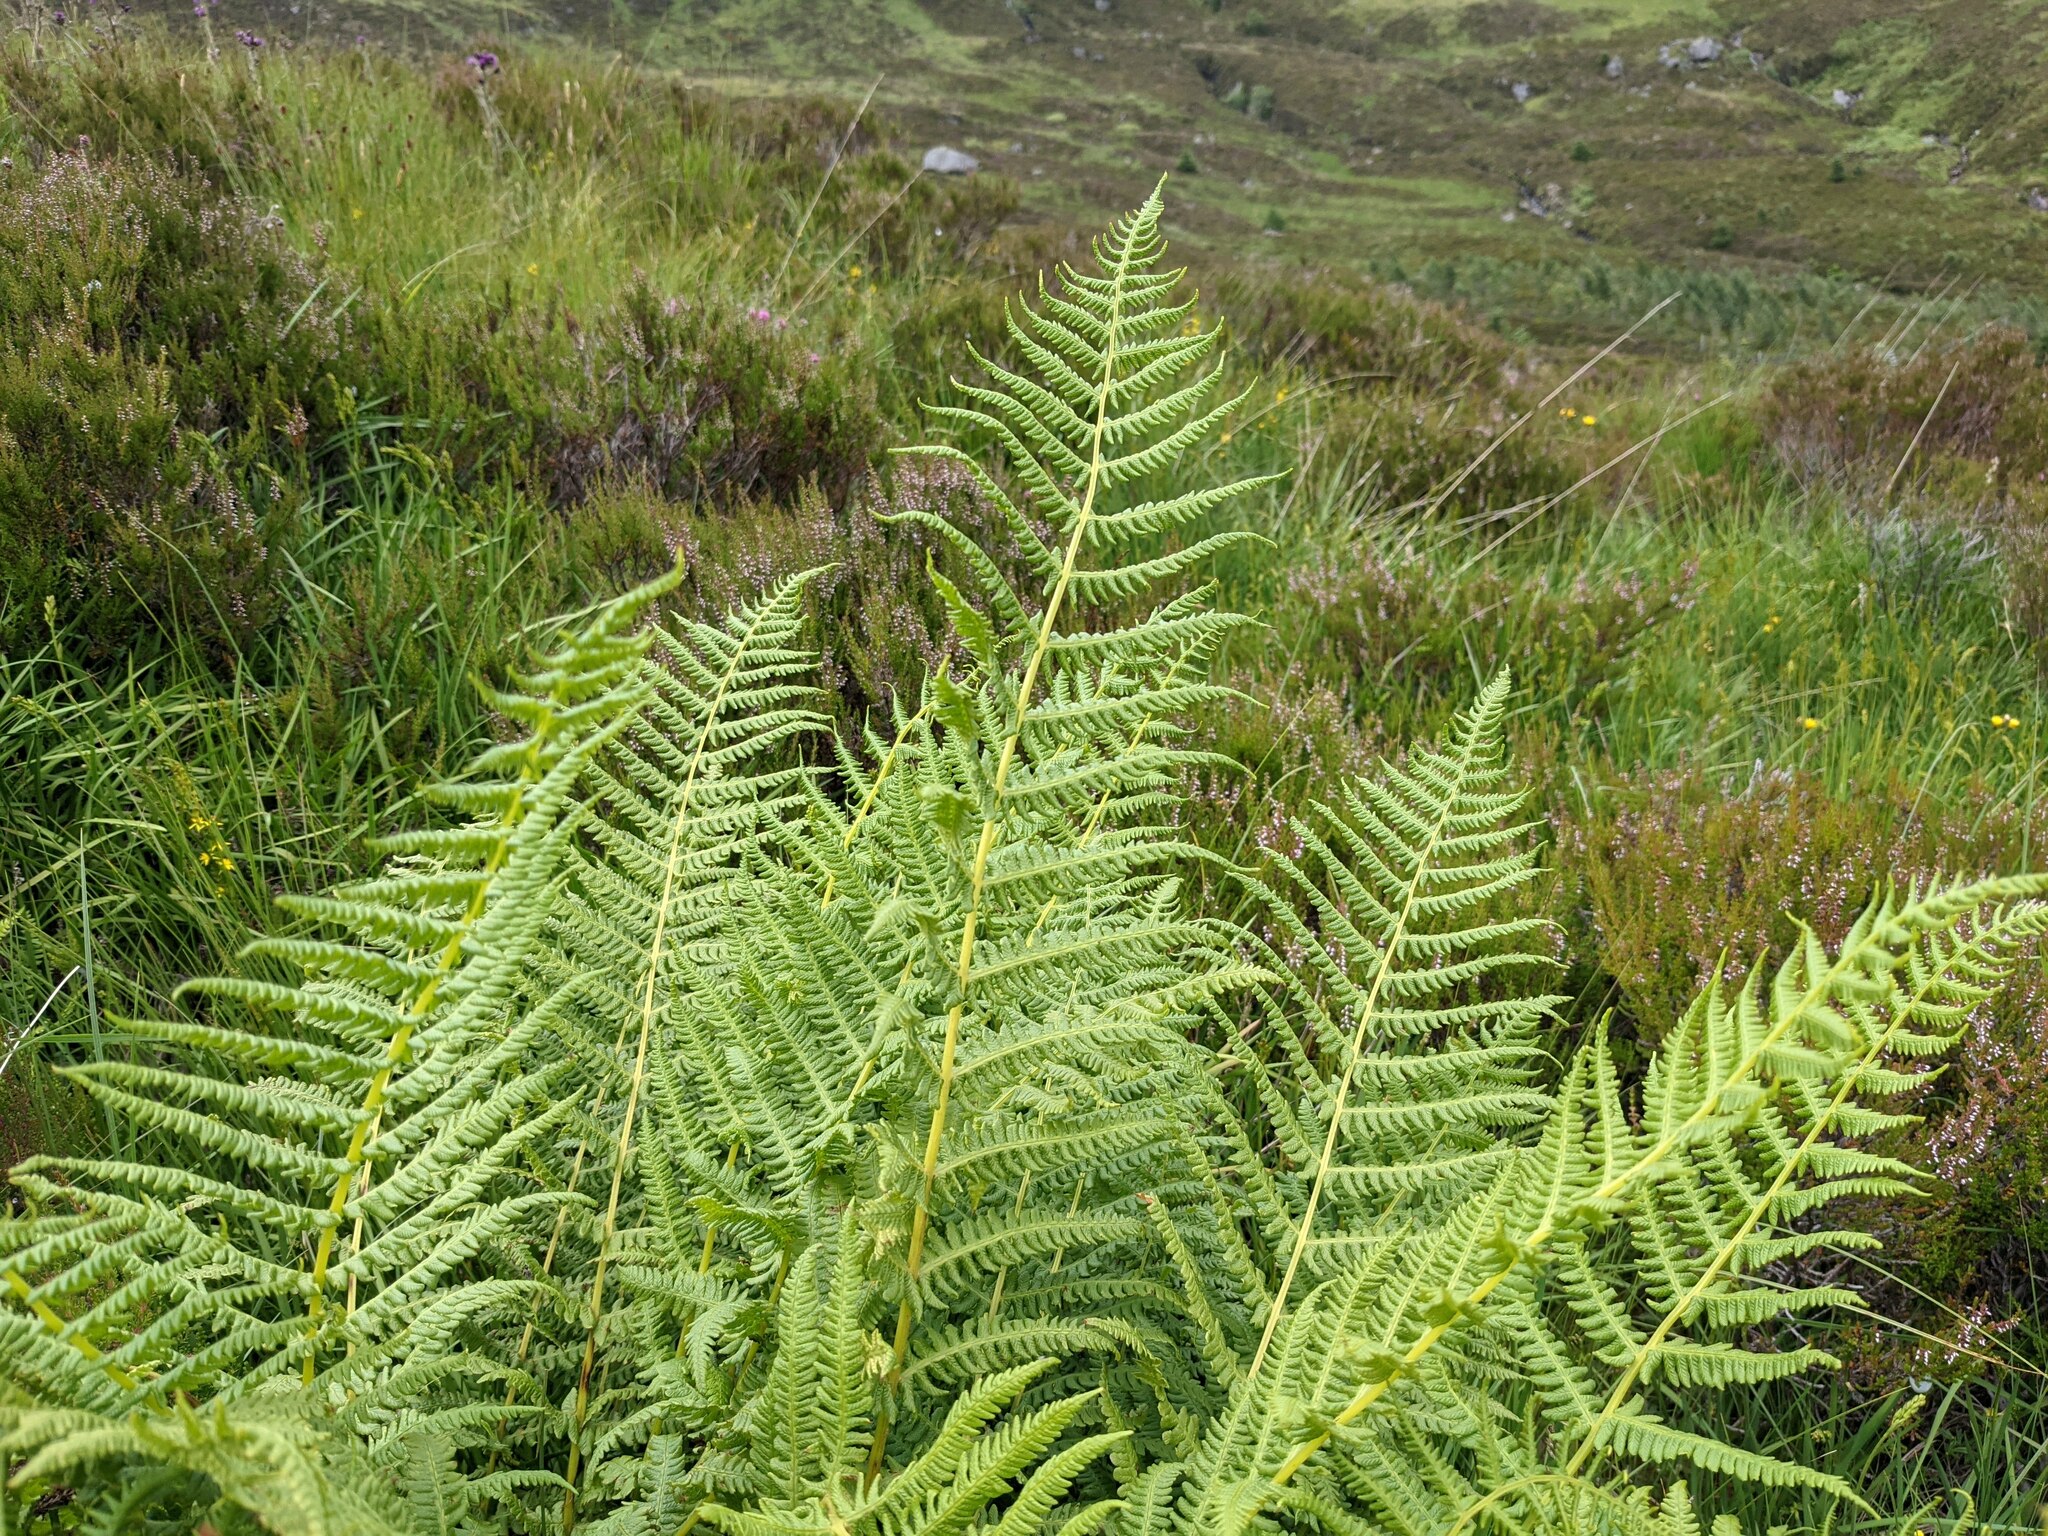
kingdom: Plantae
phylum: Tracheophyta
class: Polypodiopsida
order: Polypodiales
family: Thelypteridaceae
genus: Oreopteris
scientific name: Oreopteris limbosperma
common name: Lemon-scented fern
